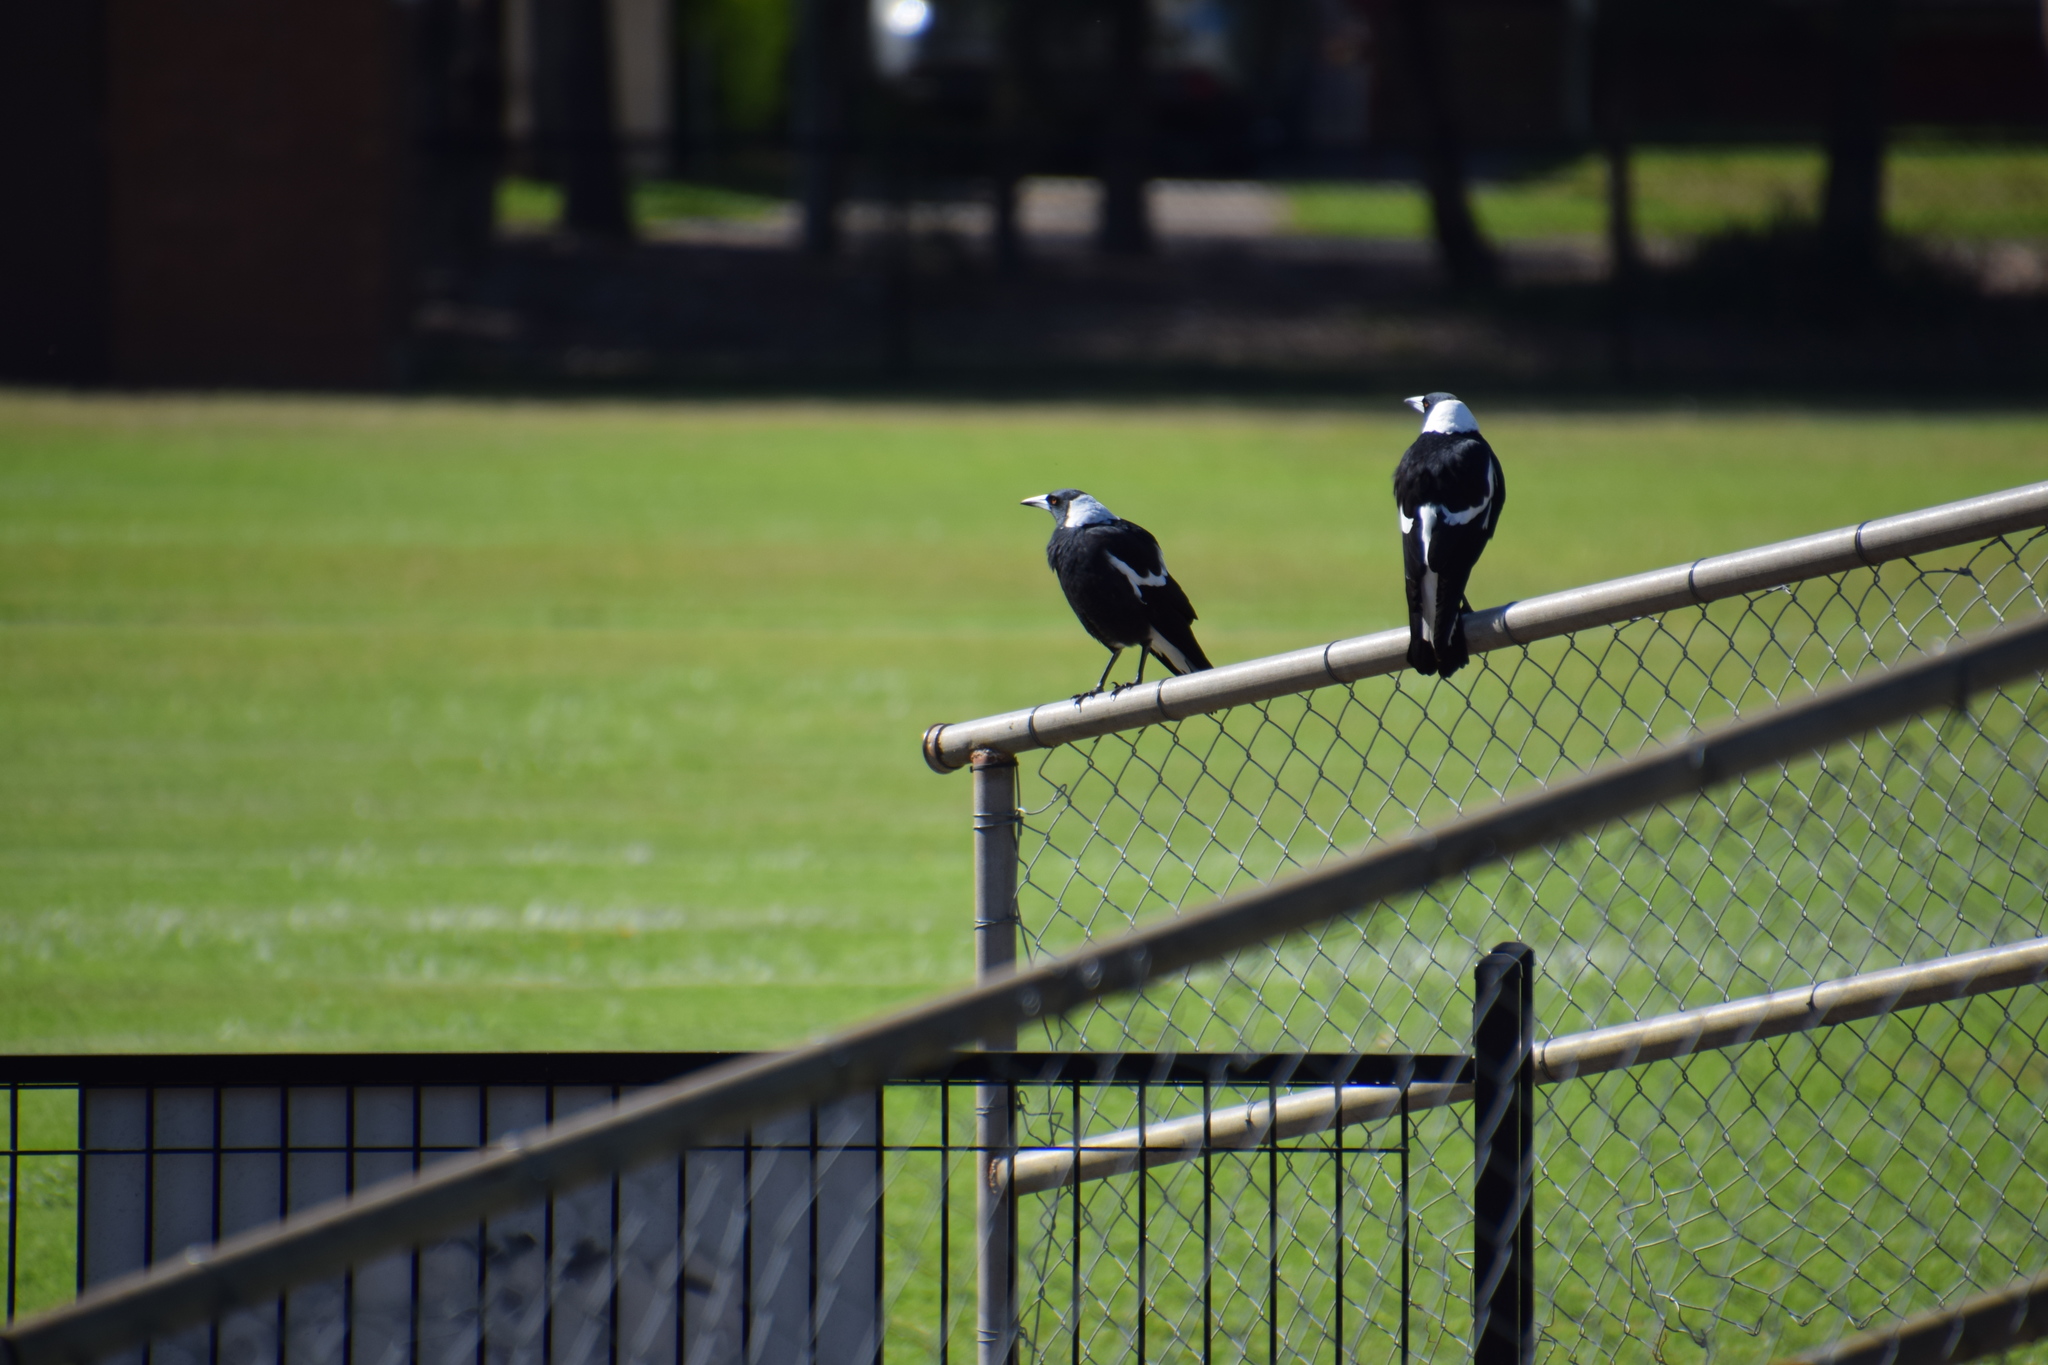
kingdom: Animalia
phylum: Chordata
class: Aves
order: Passeriformes
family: Cracticidae
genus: Gymnorhina
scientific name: Gymnorhina tibicen
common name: Australian magpie
